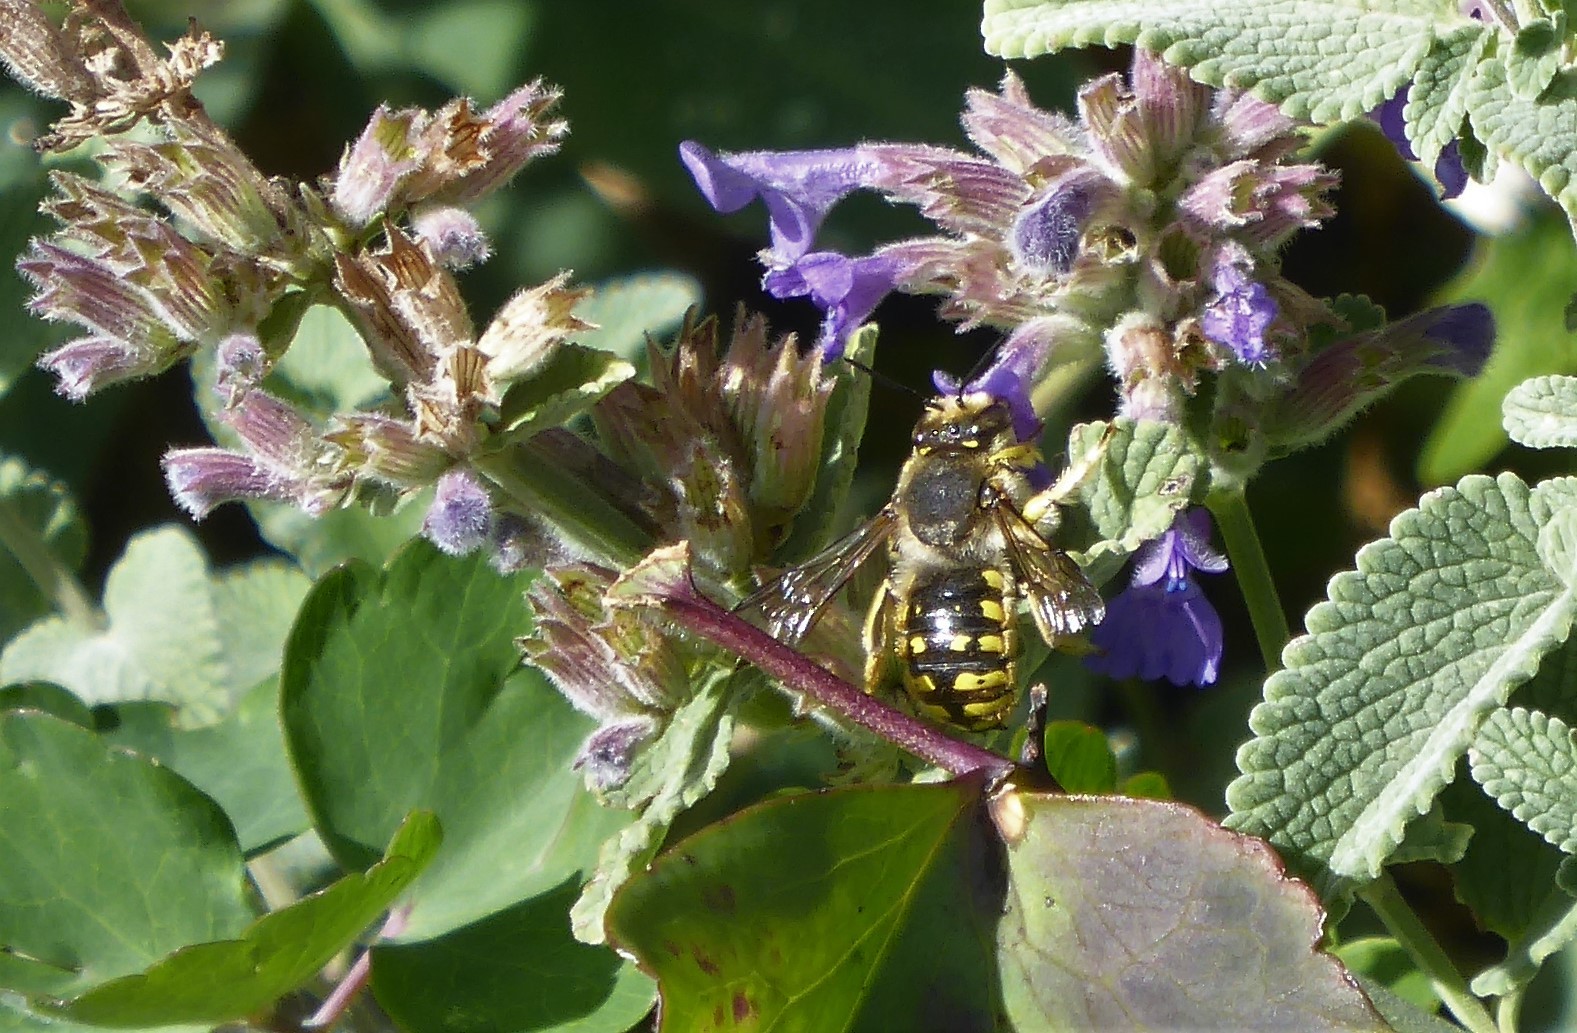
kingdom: Animalia
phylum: Arthropoda
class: Insecta
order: Hymenoptera
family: Megachilidae
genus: Anthidium
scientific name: Anthidium manicatum
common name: Wool carder bee
